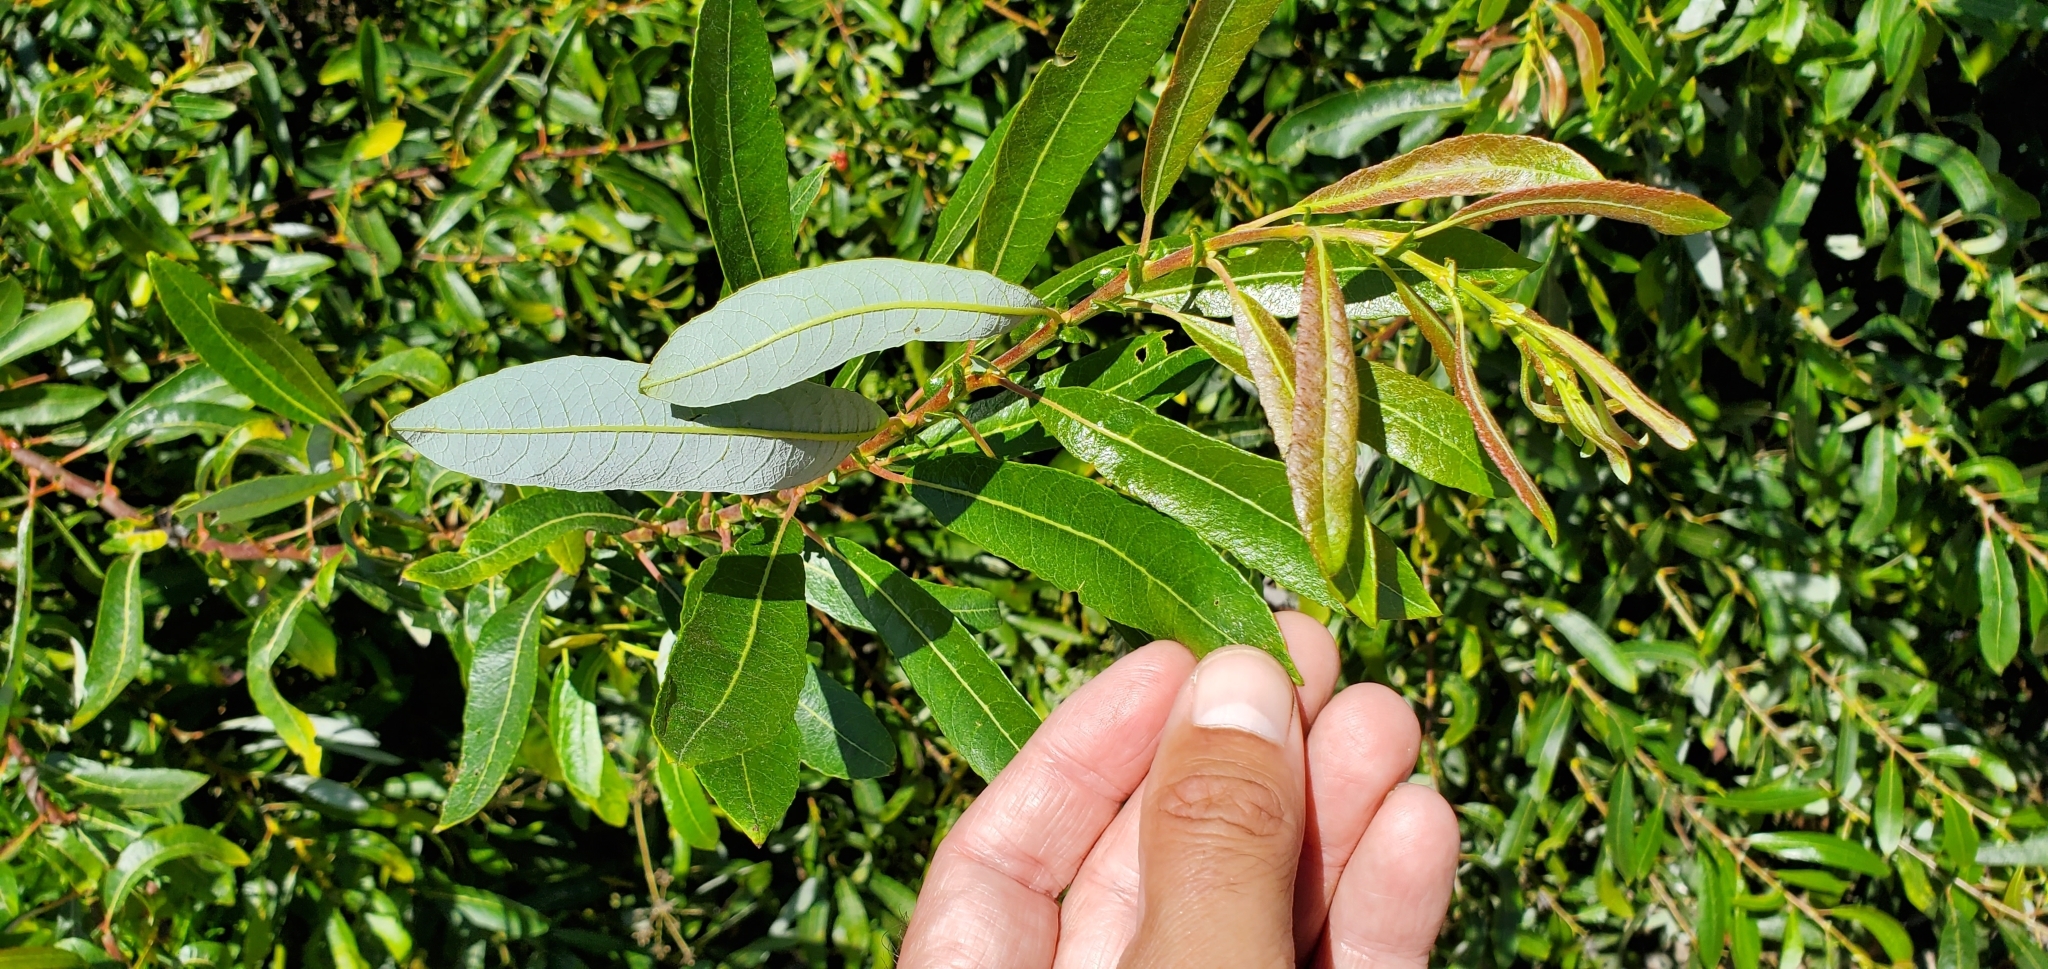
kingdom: Plantae
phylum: Tracheophyta
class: Magnoliopsida
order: Malpighiales
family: Salicaceae
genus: Salix
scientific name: Salix lasiolepis
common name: Arroyo willow
